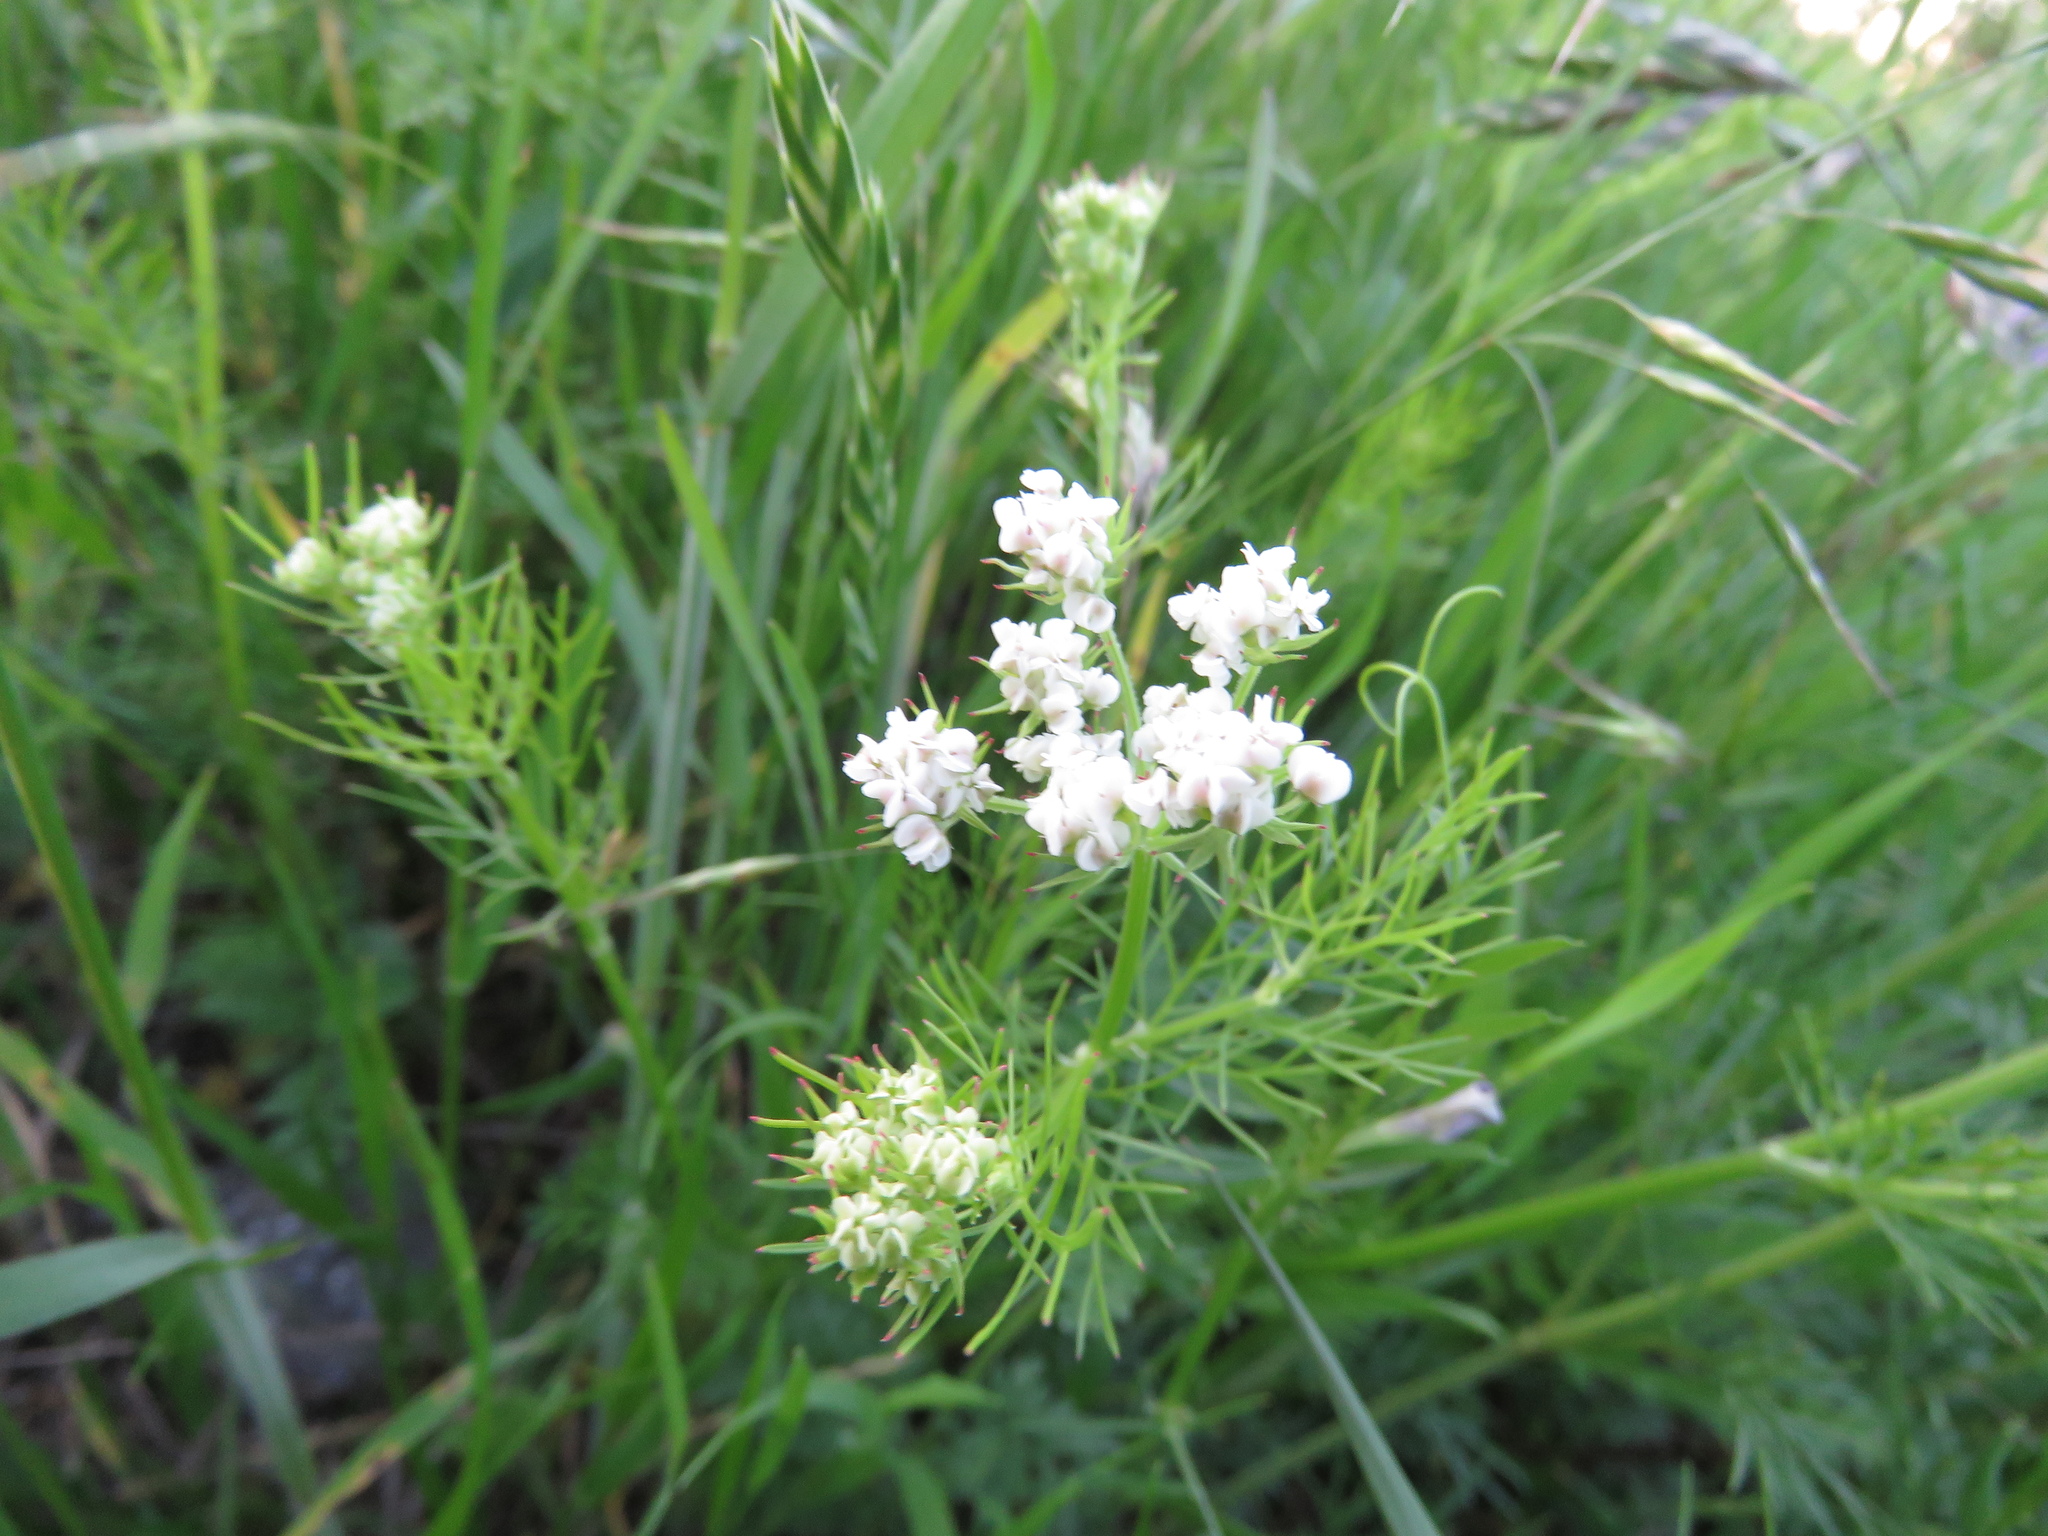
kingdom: Plantae
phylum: Tracheophyta
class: Magnoliopsida
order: Apiales
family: Apiaceae
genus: Atrema
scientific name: Atrema americanum
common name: Prairie-bishop
